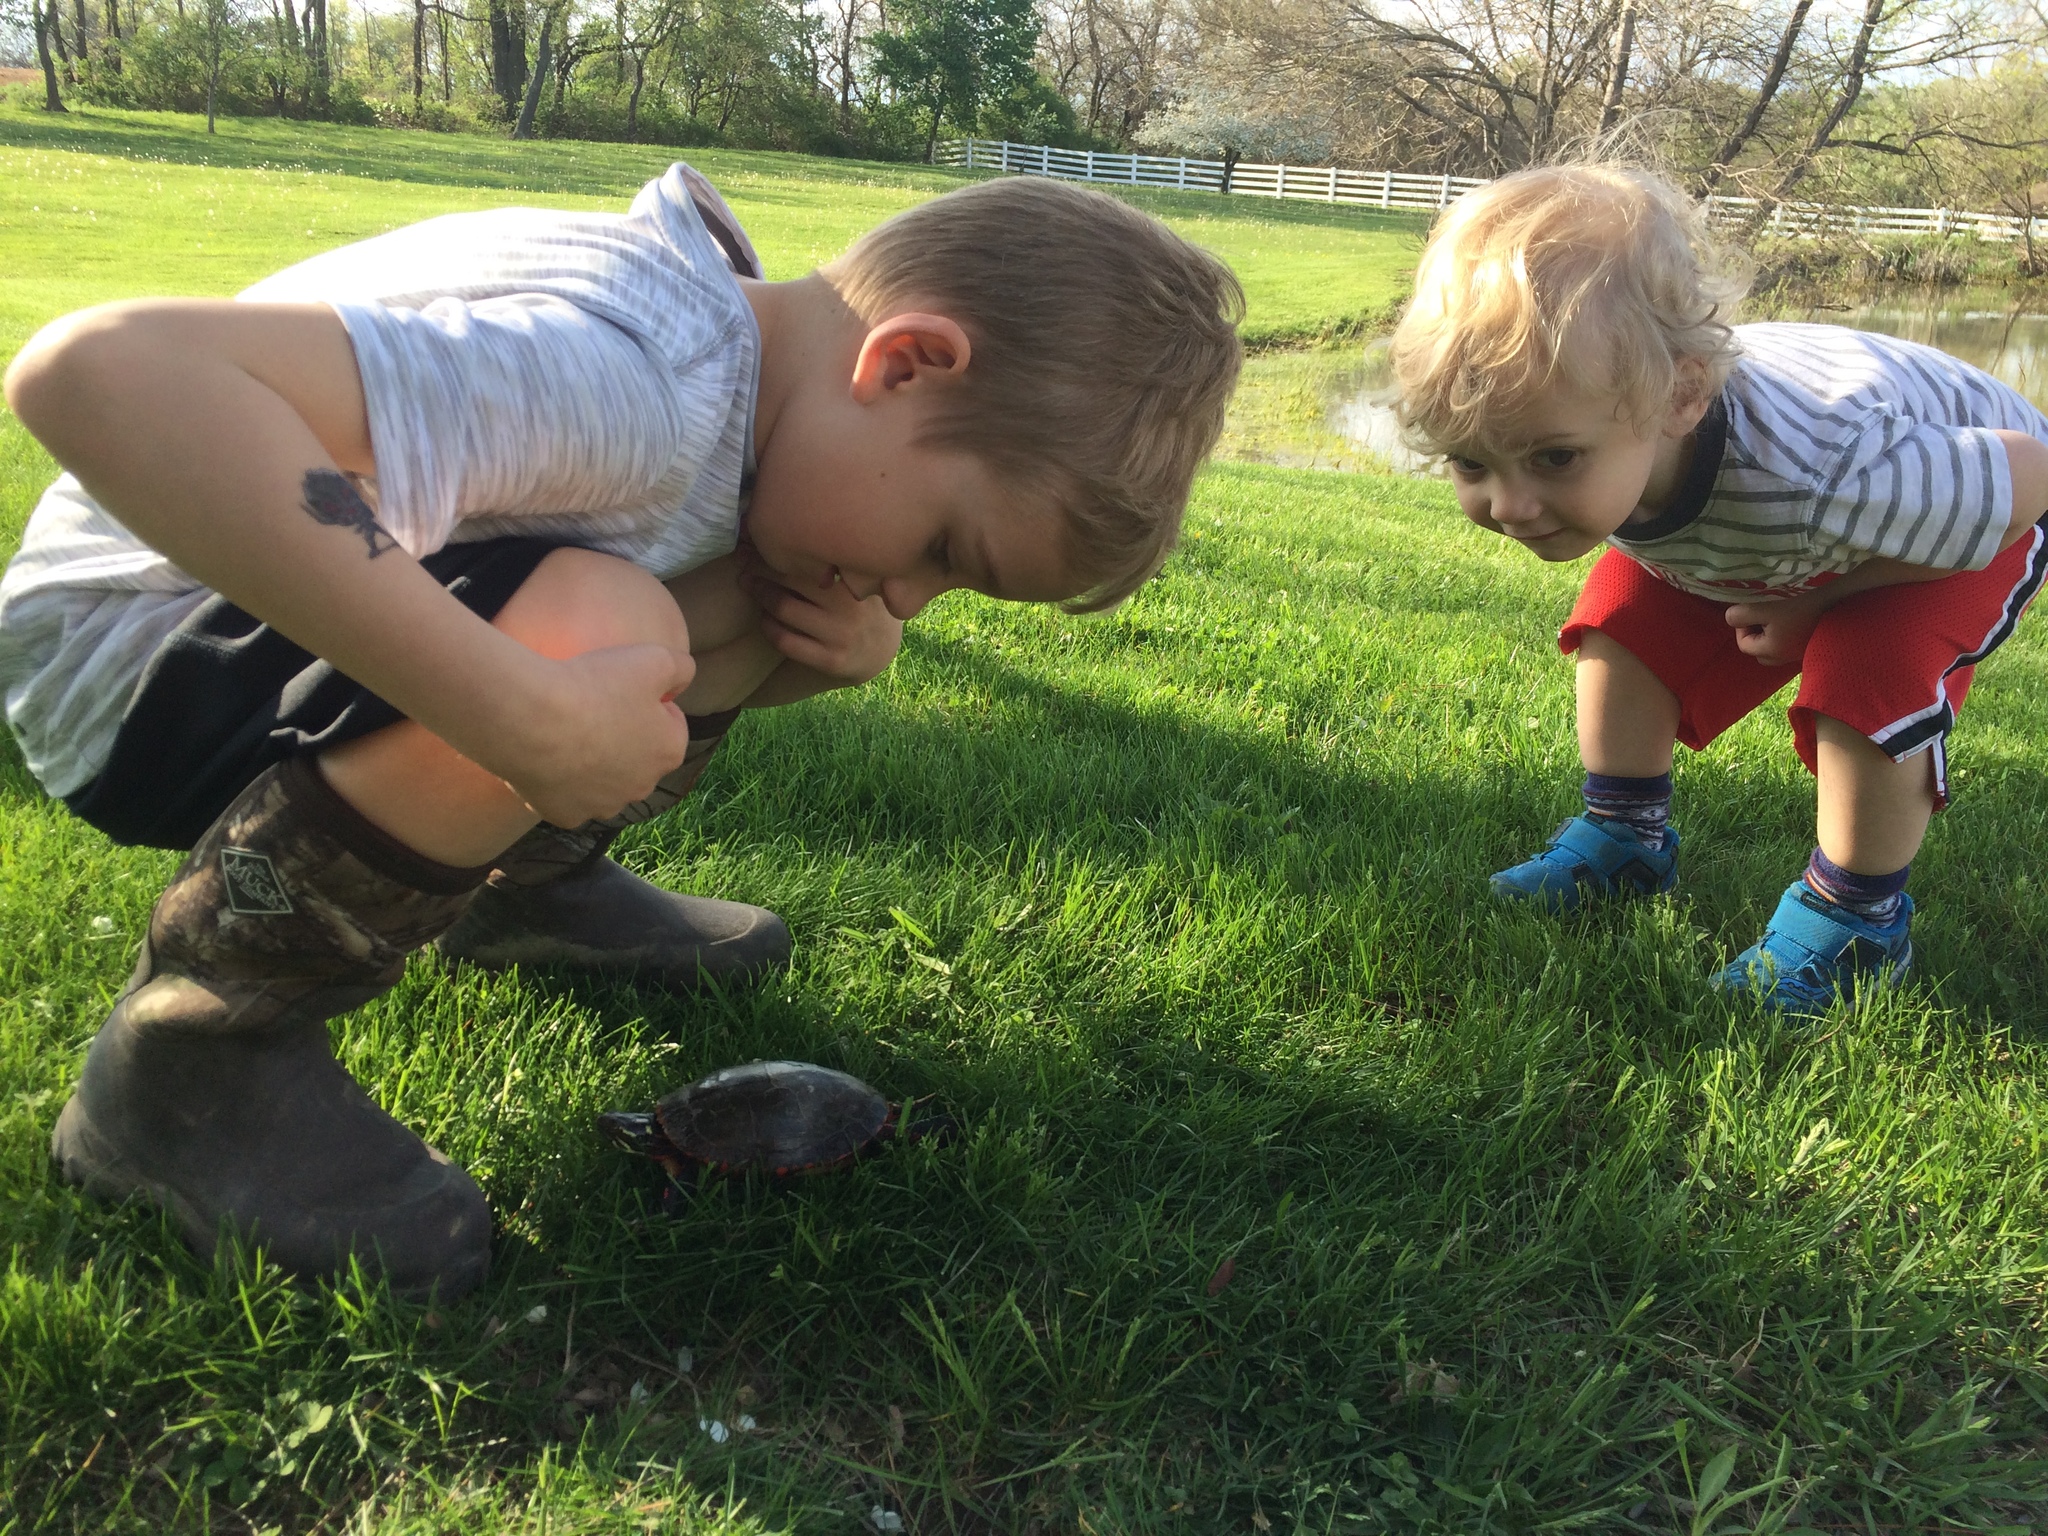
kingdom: Animalia
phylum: Chordata
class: Testudines
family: Emydidae
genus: Chrysemys
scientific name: Chrysemys picta
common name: Painted turtle
